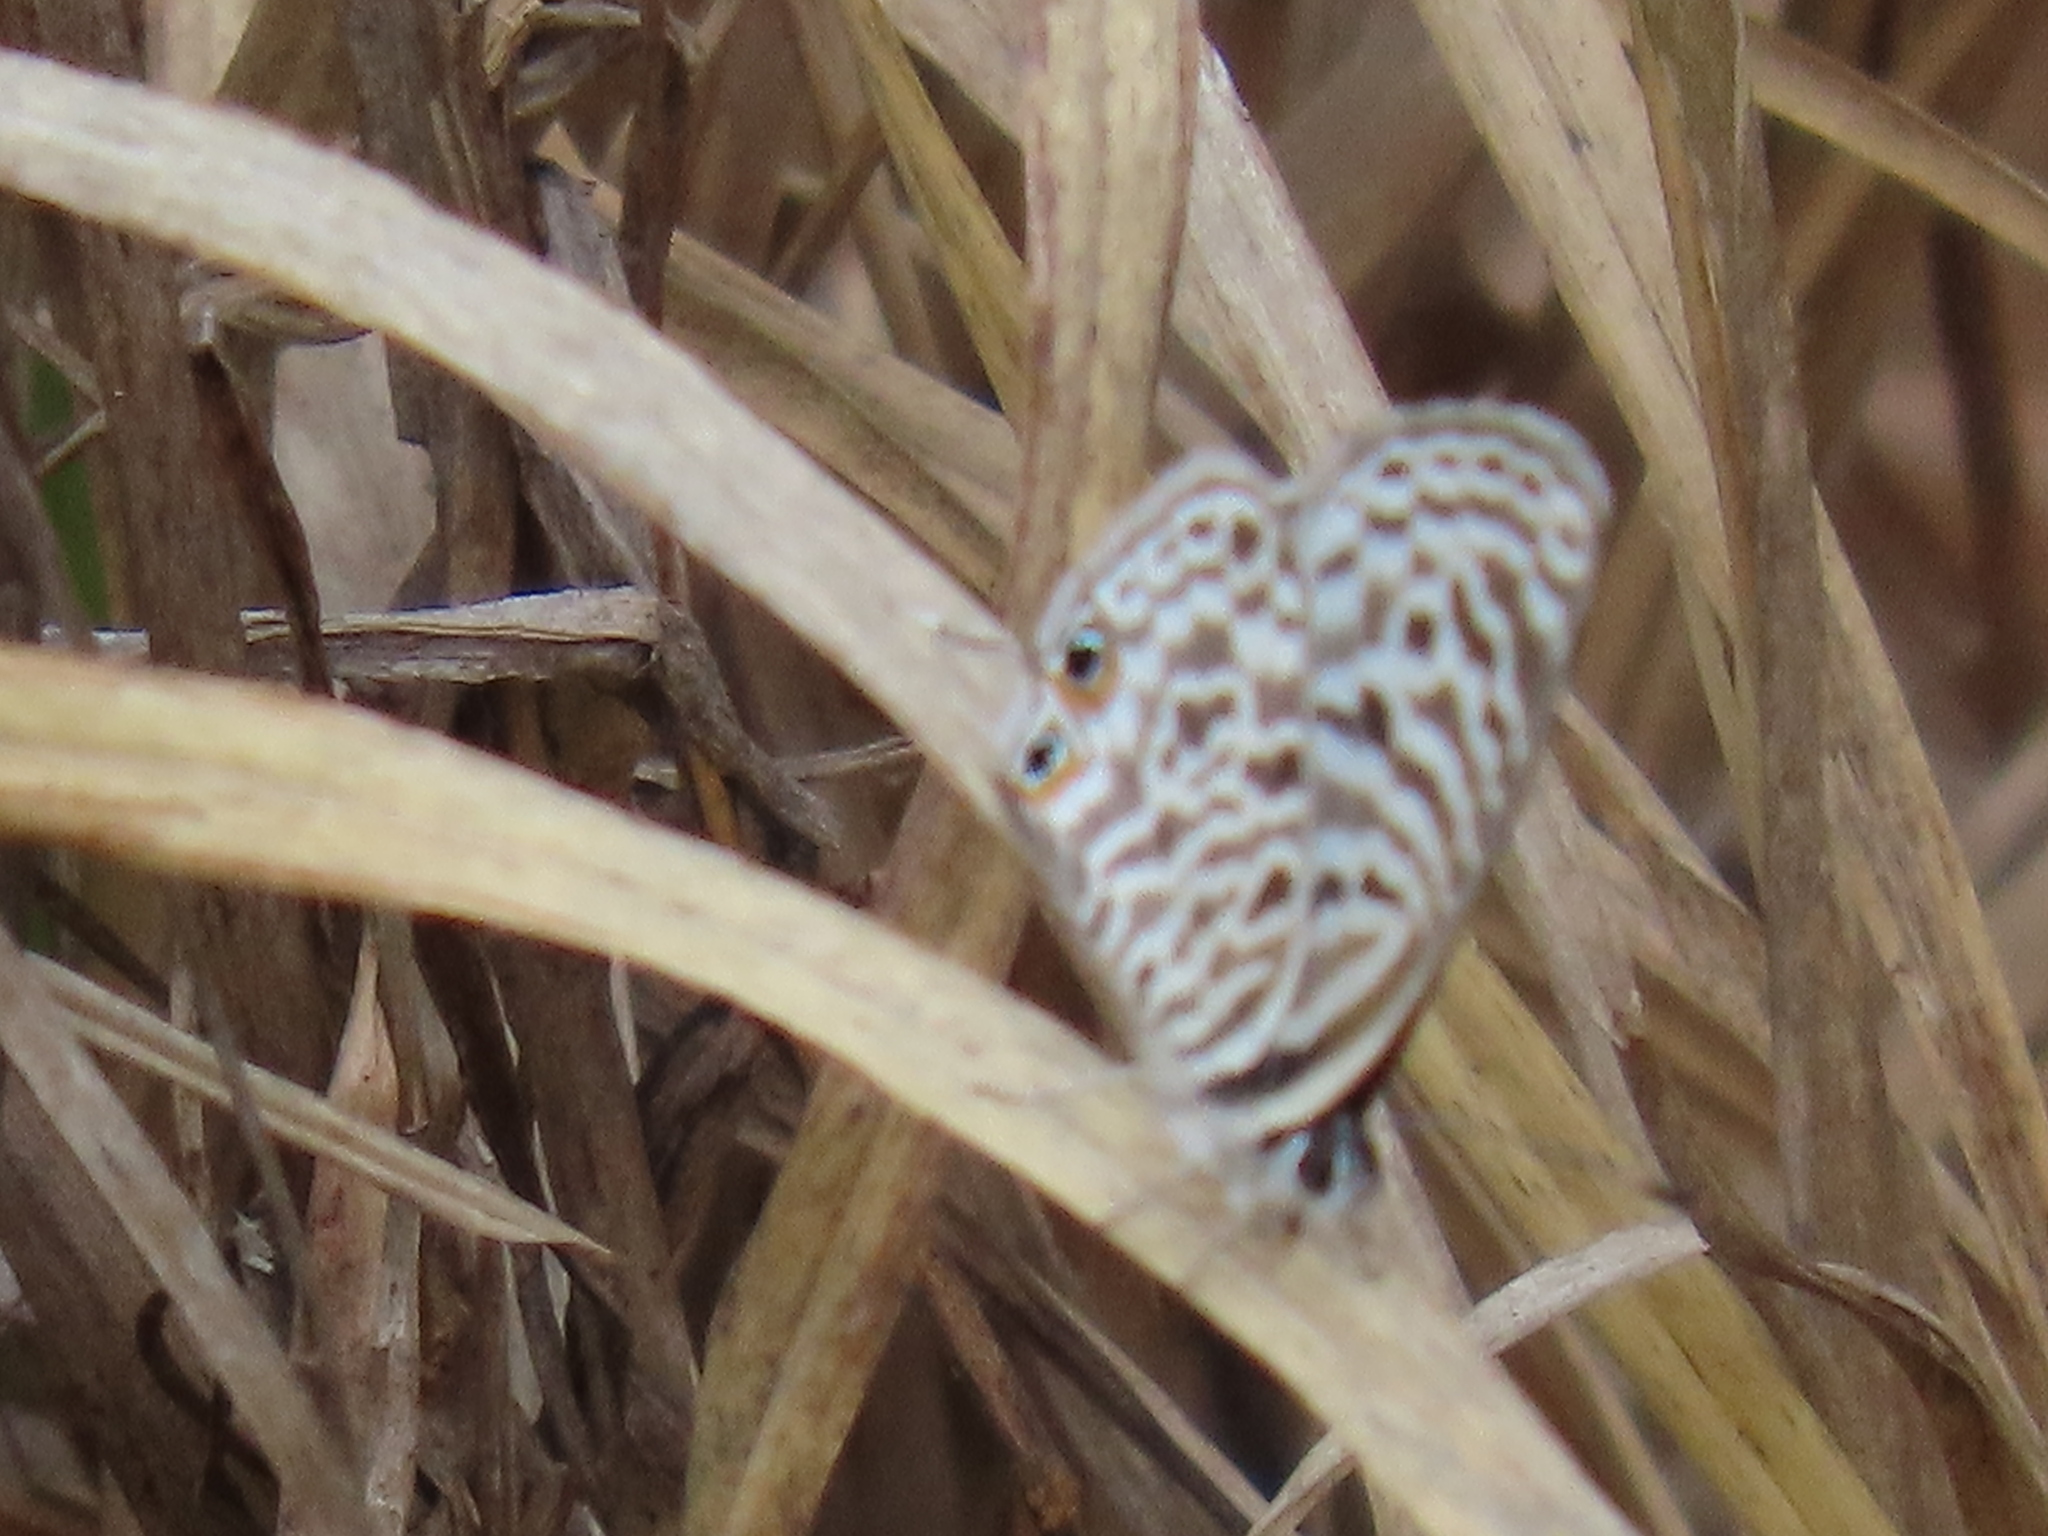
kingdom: Animalia
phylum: Arthropoda
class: Insecta
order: Lepidoptera
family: Lycaenidae
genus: Leptotes
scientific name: Leptotes
